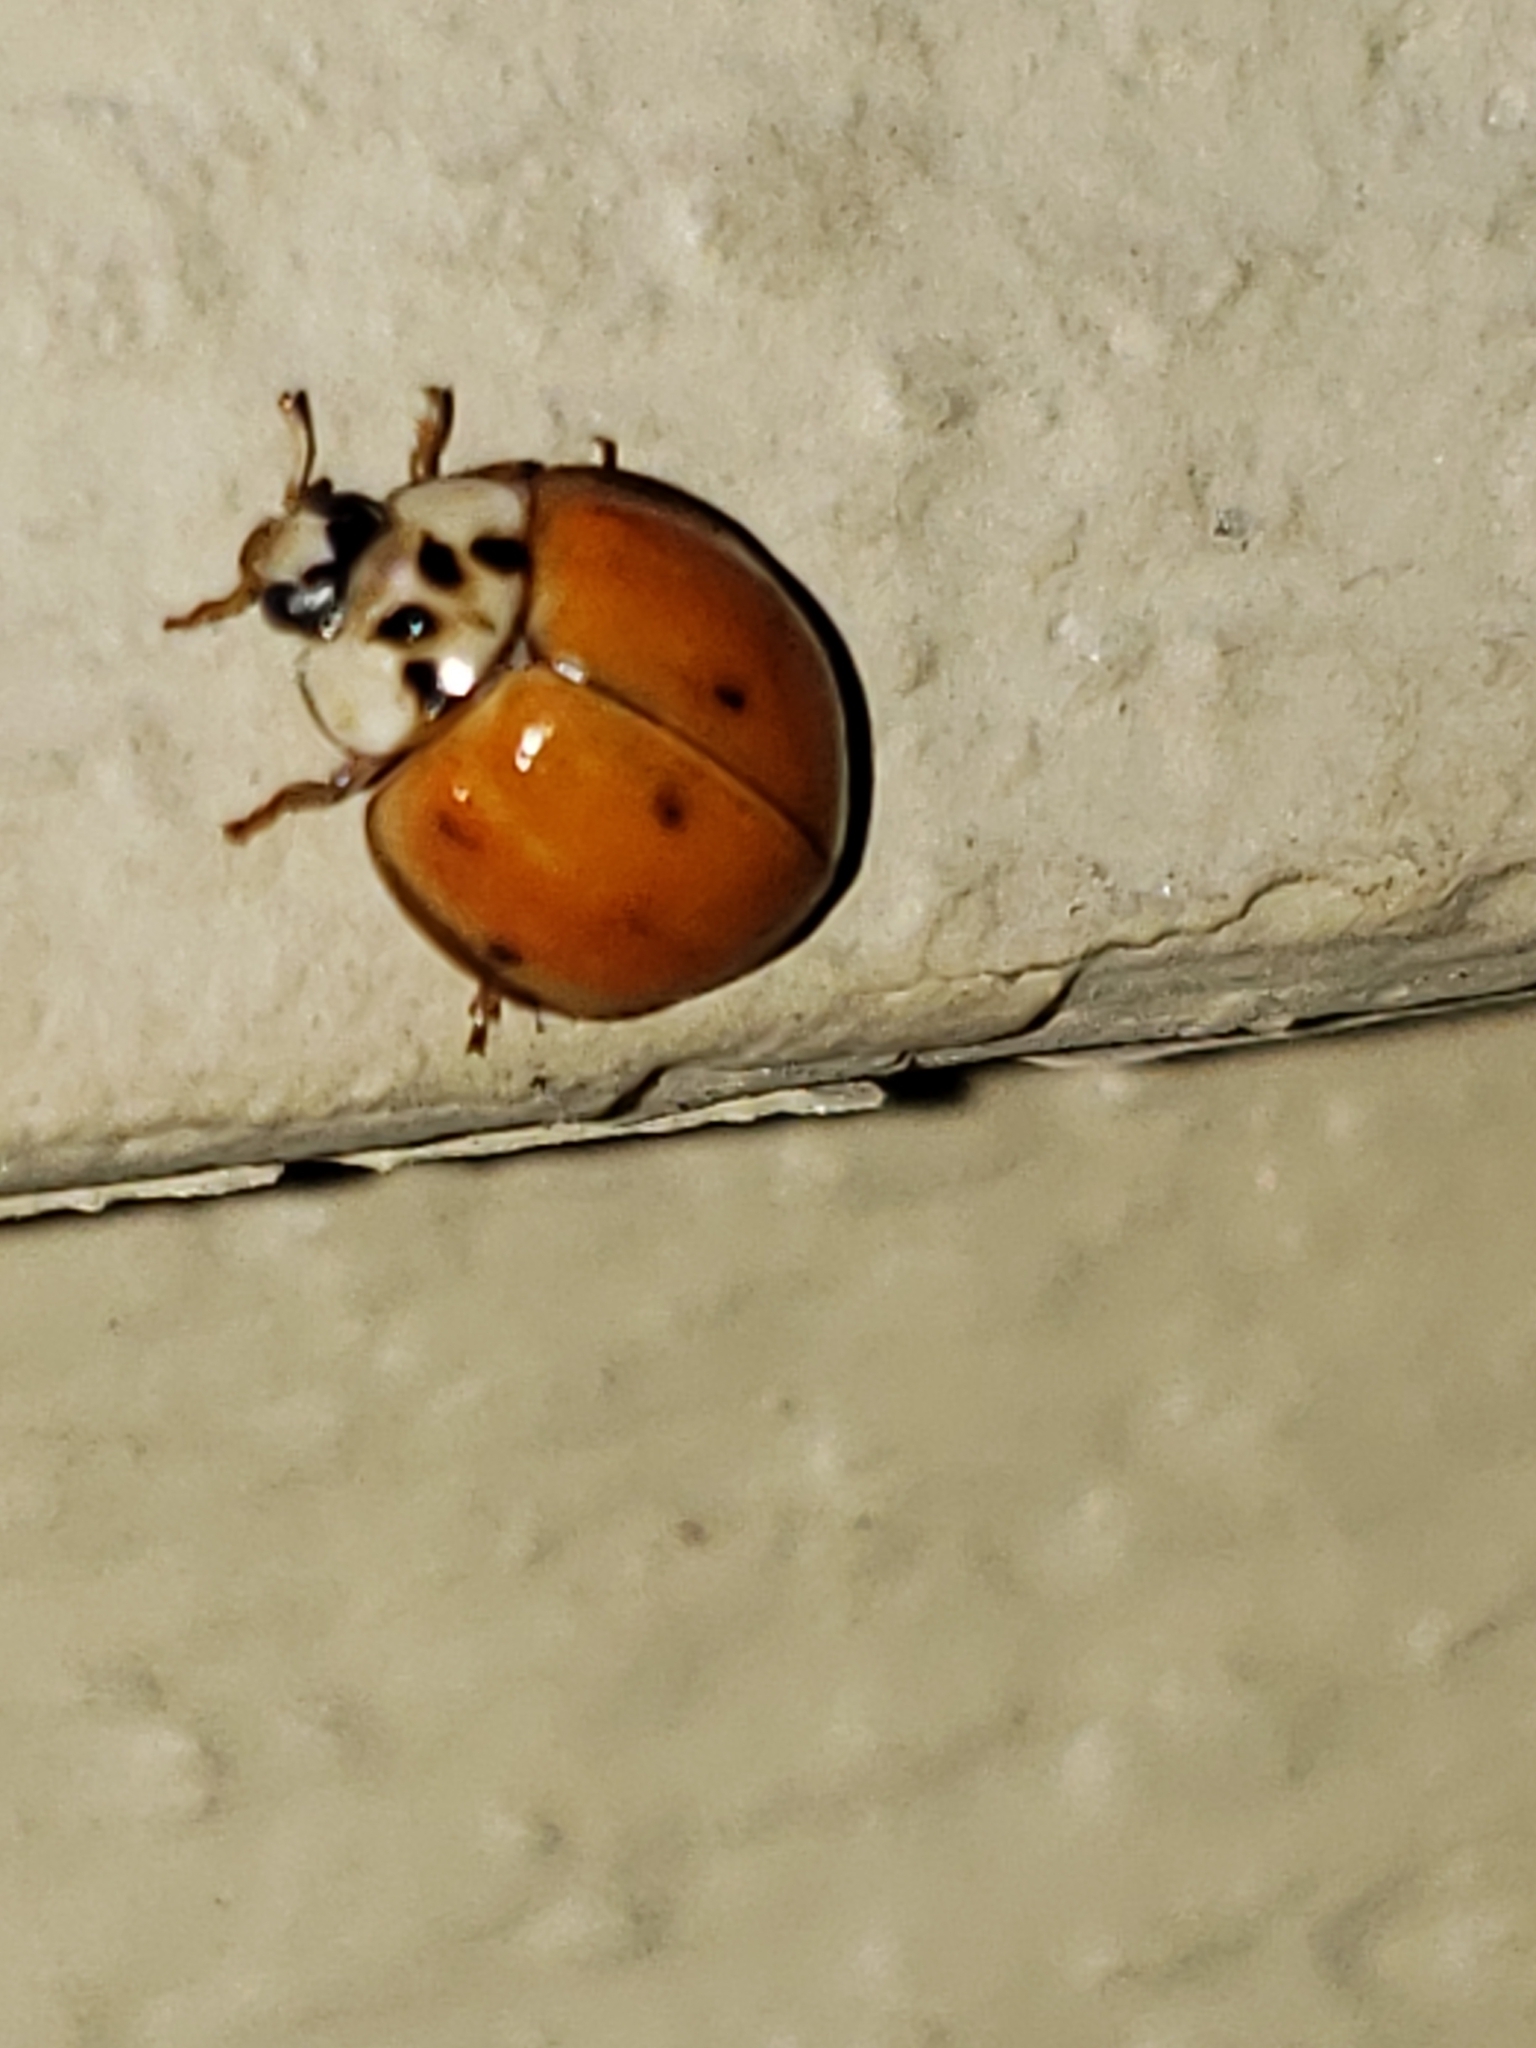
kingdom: Animalia
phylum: Arthropoda
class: Insecta
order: Coleoptera
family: Coccinellidae
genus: Harmonia
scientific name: Harmonia axyridis
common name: Harlequin ladybird
